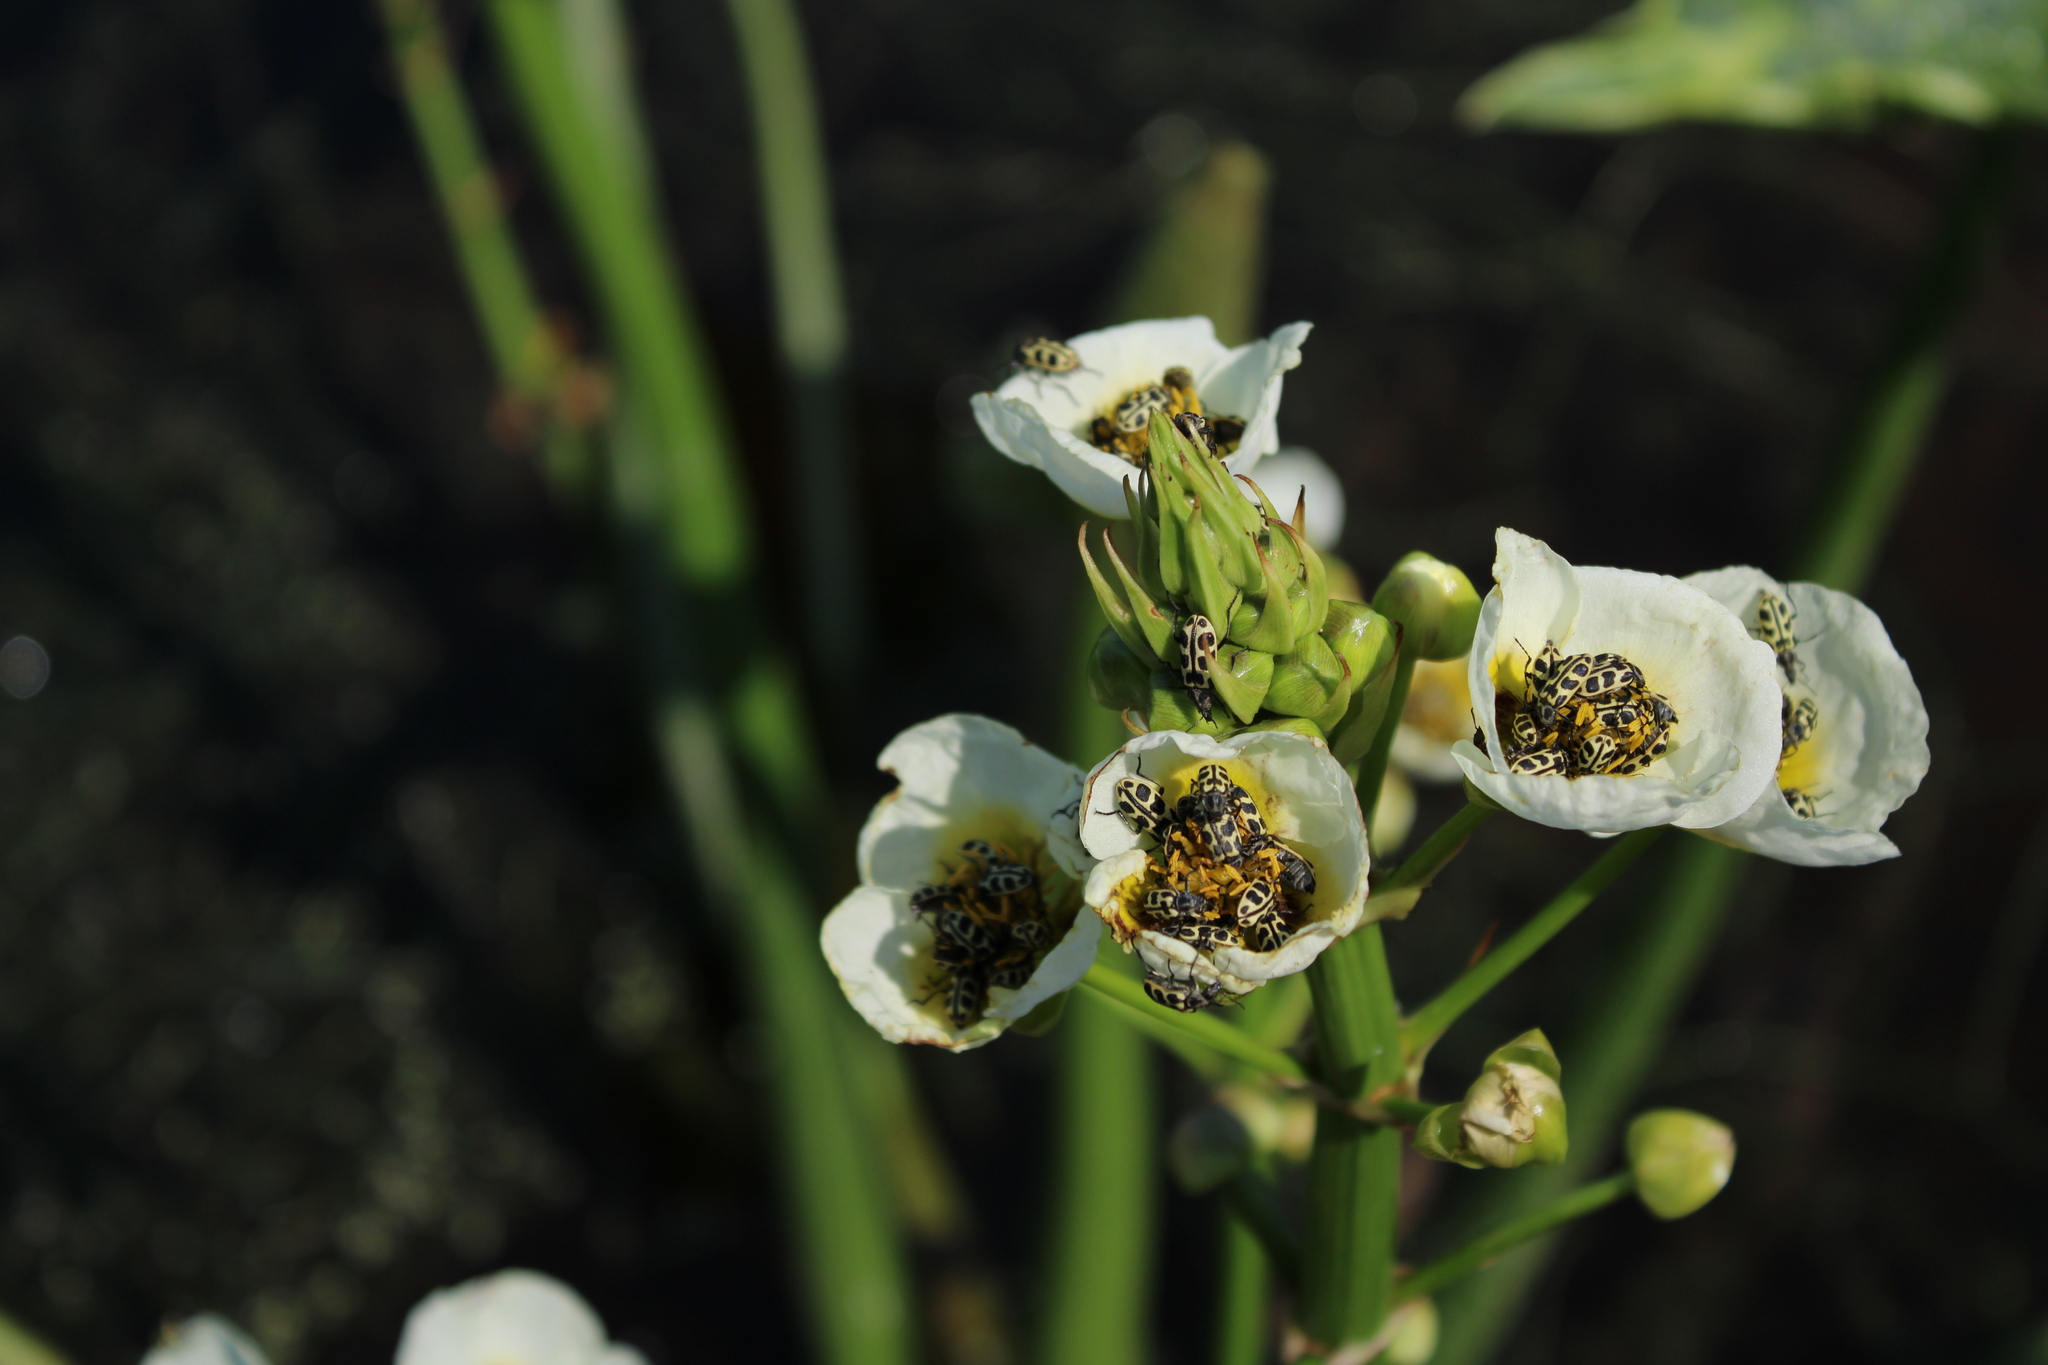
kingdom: Animalia
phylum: Arthropoda
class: Insecta
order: Coleoptera
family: Melyridae
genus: Astylus
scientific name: Astylus atromaculatus
